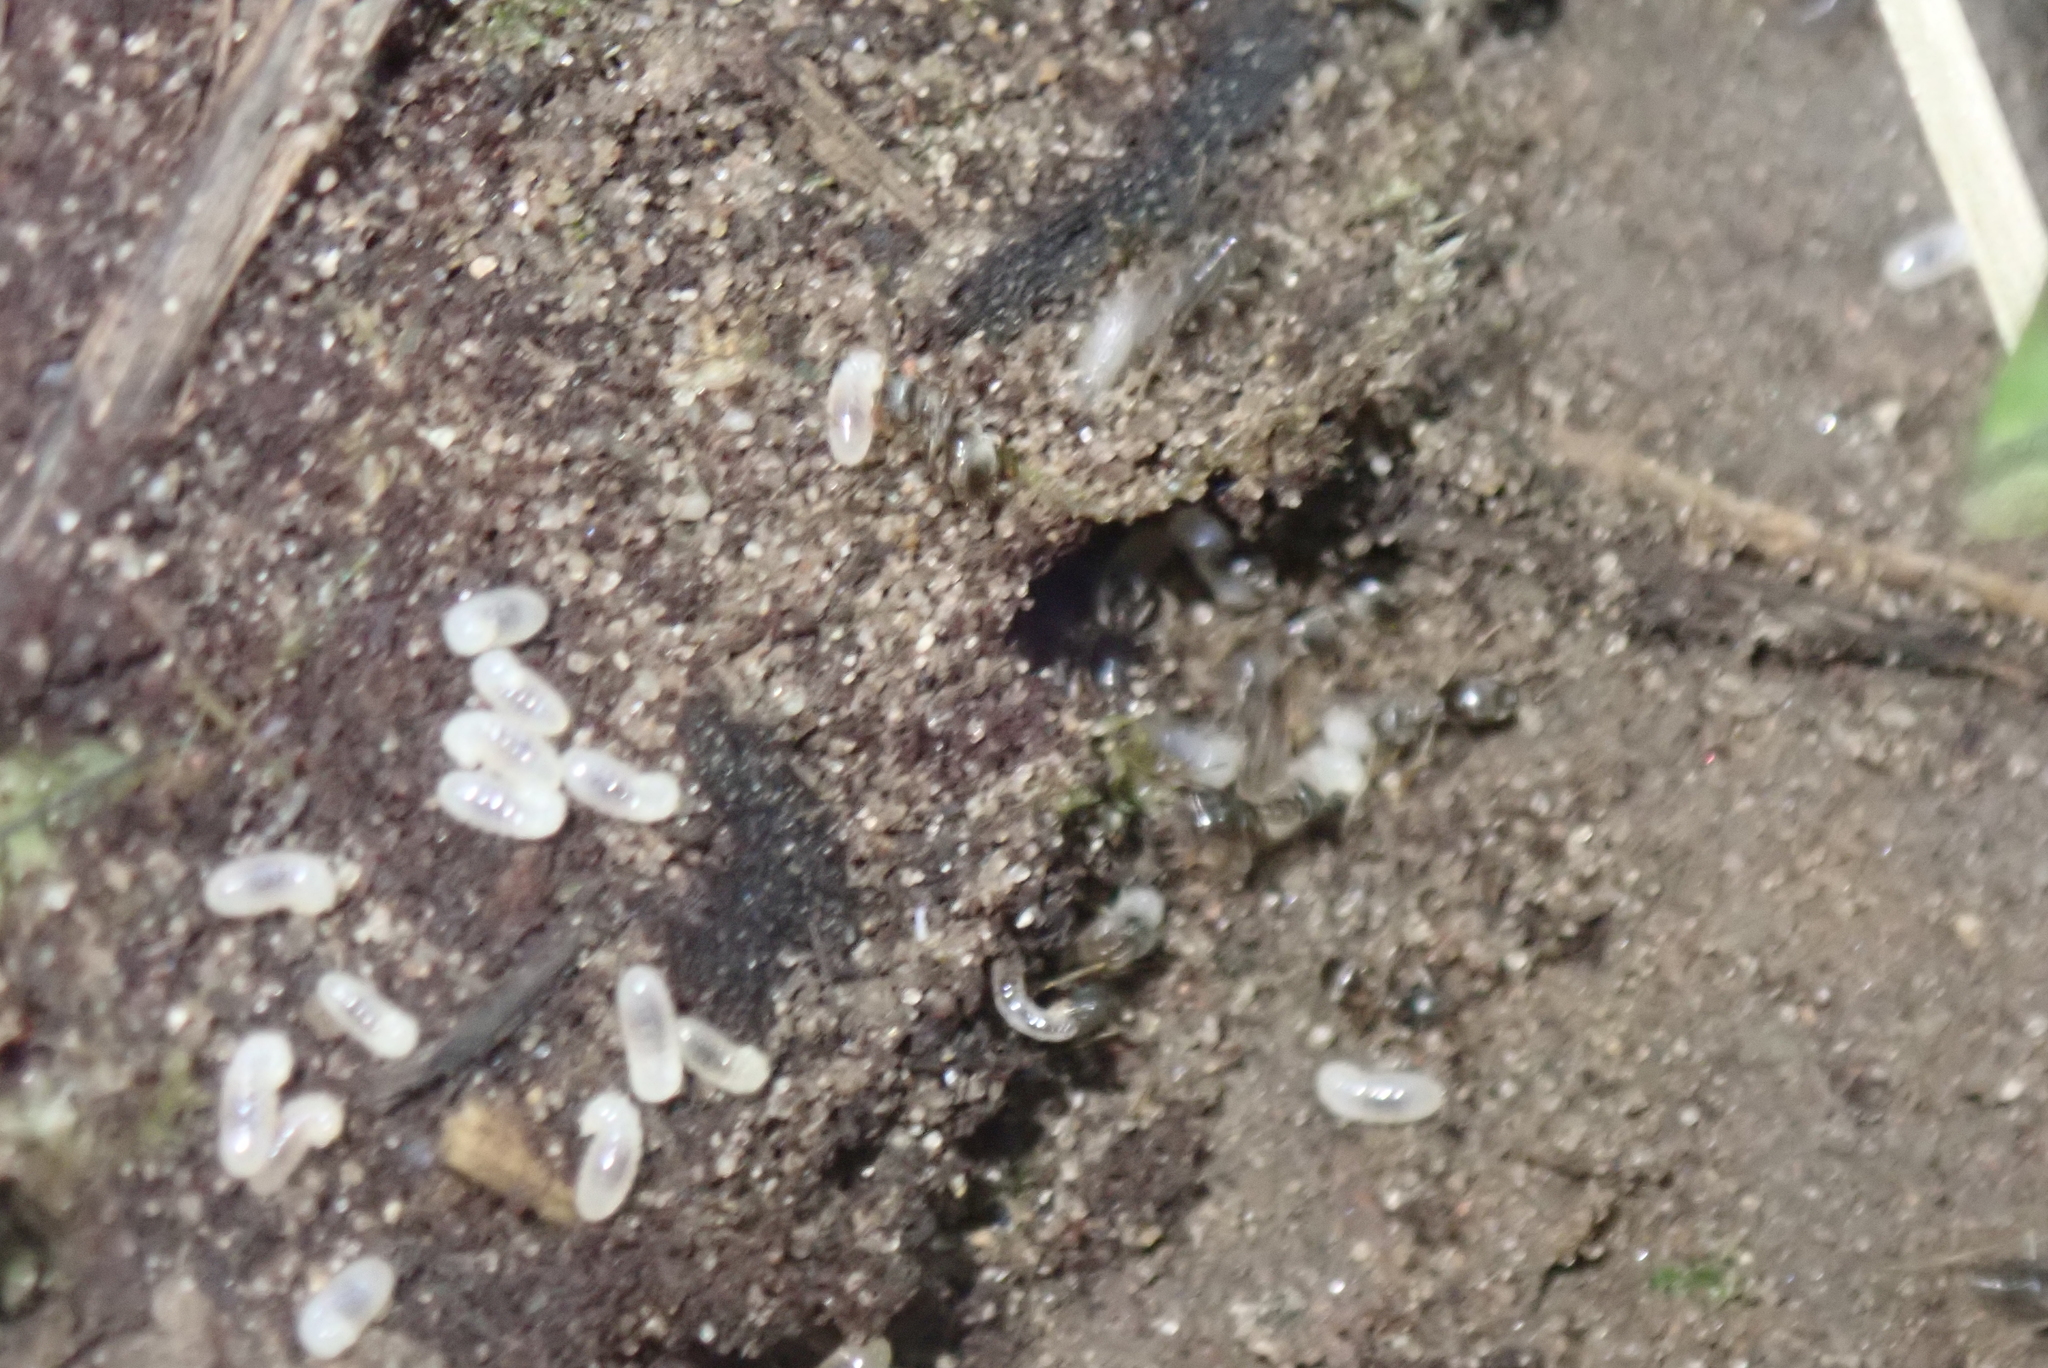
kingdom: Animalia
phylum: Arthropoda
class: Insecta
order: Hymenoptera
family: Formicidae
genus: Lasius
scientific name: Lasius americanus
